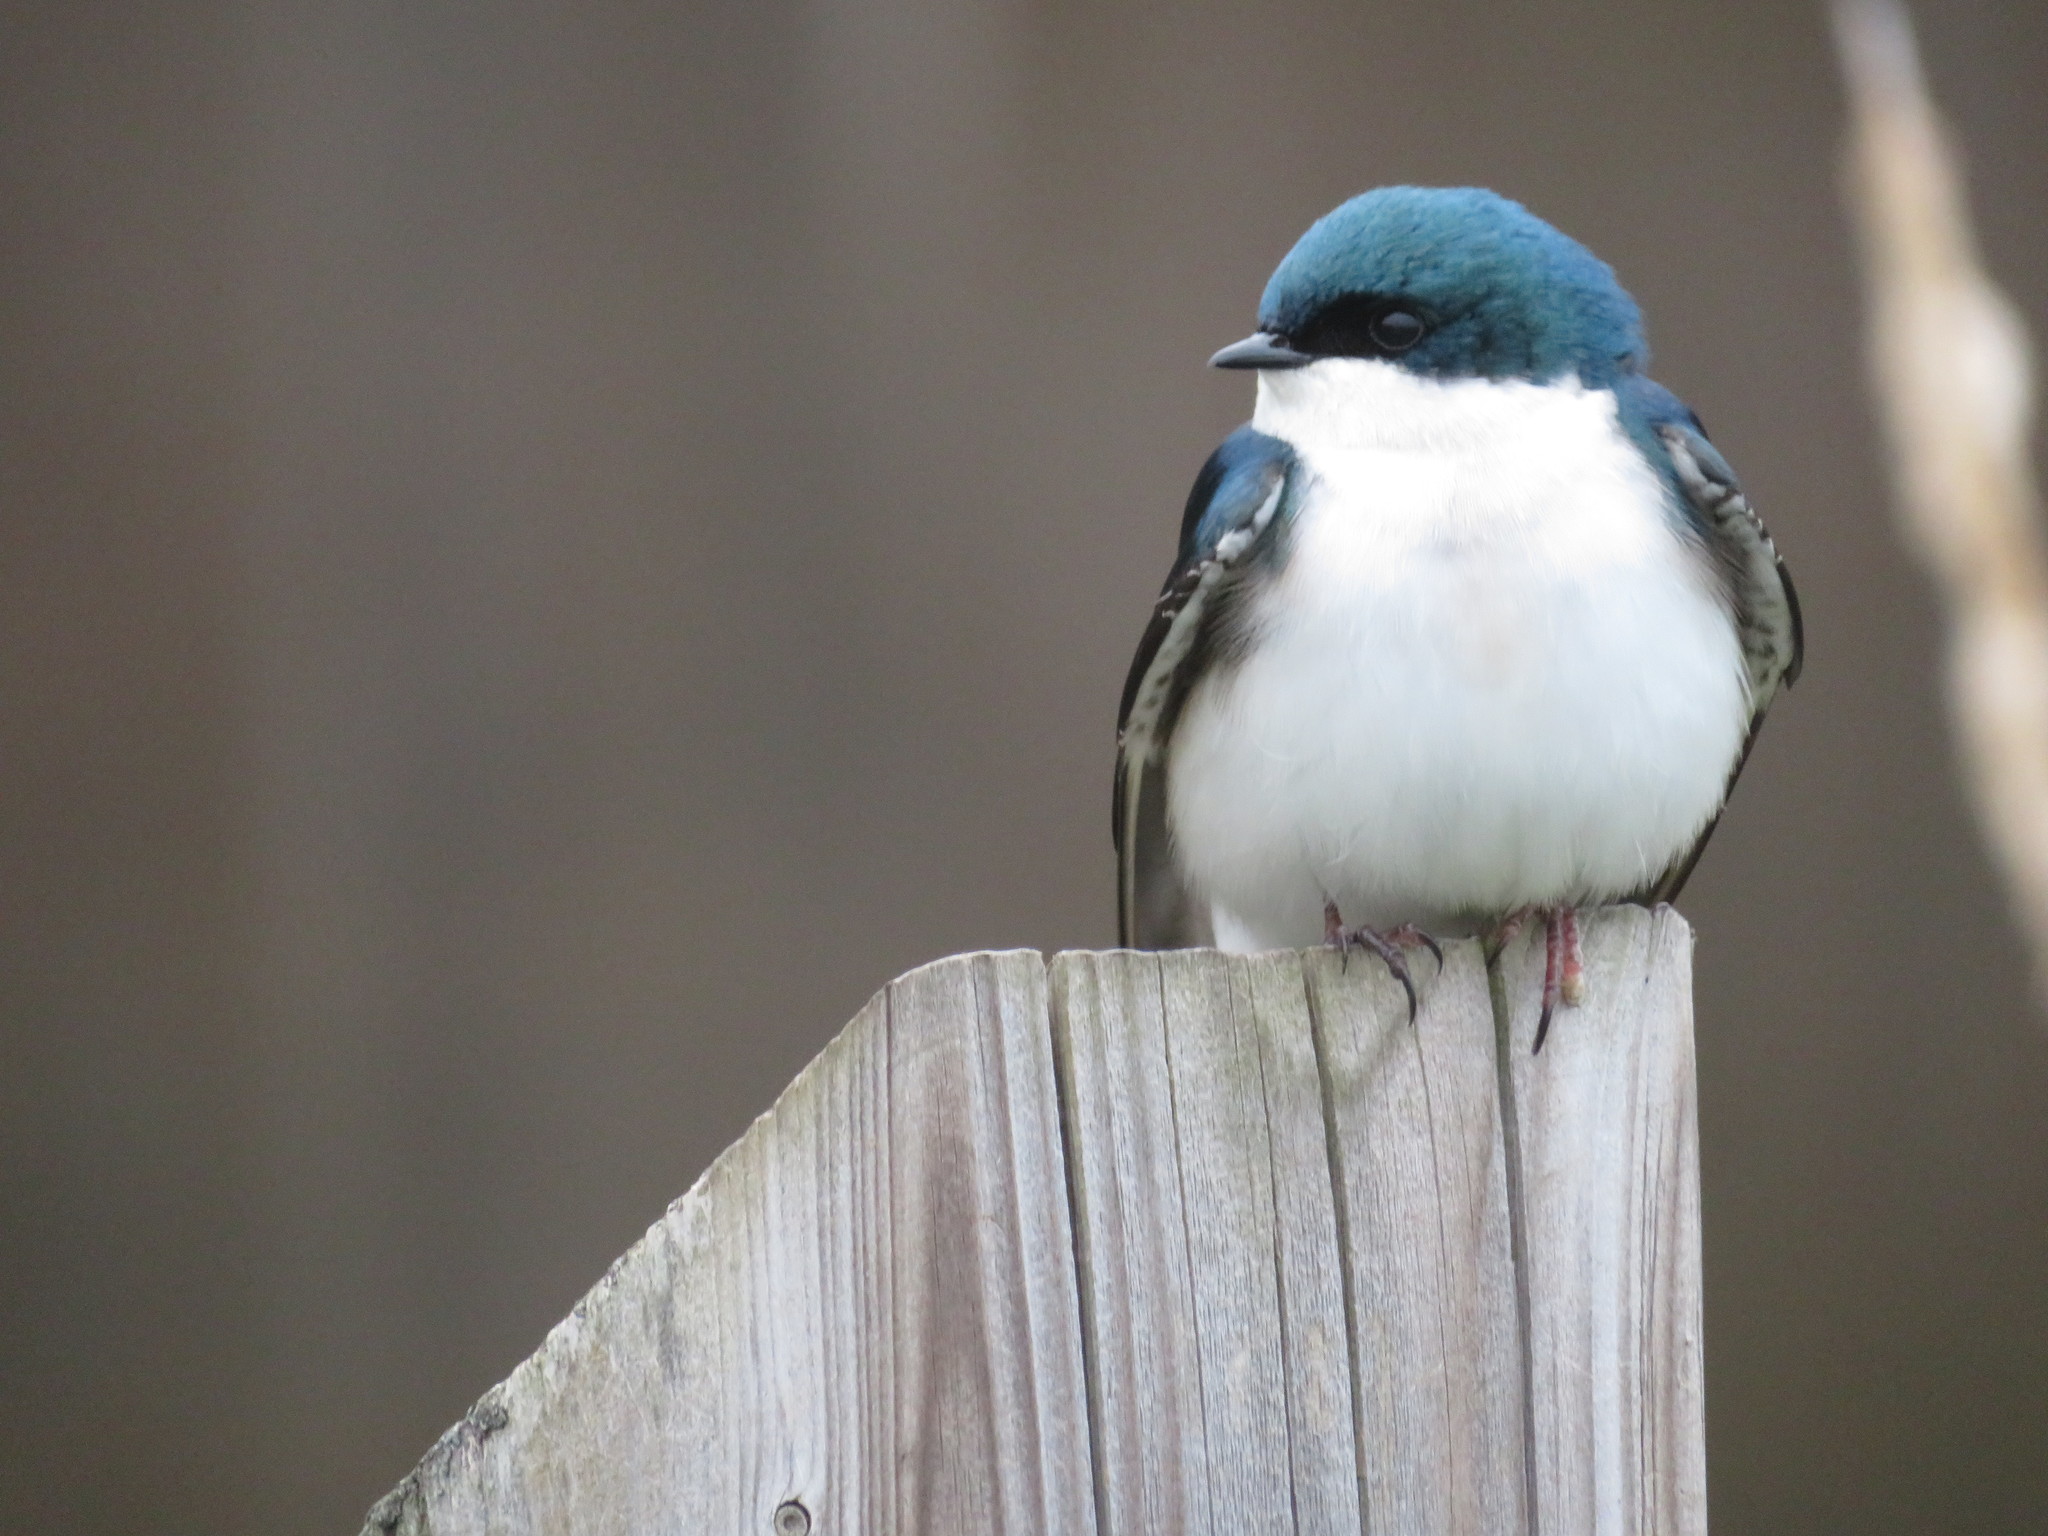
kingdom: Animalia
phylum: Chordata
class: Aves
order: Passeriformes
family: Hirundinidae
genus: Tachycineta
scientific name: Tachycineta bicolor
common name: Tree swallow
